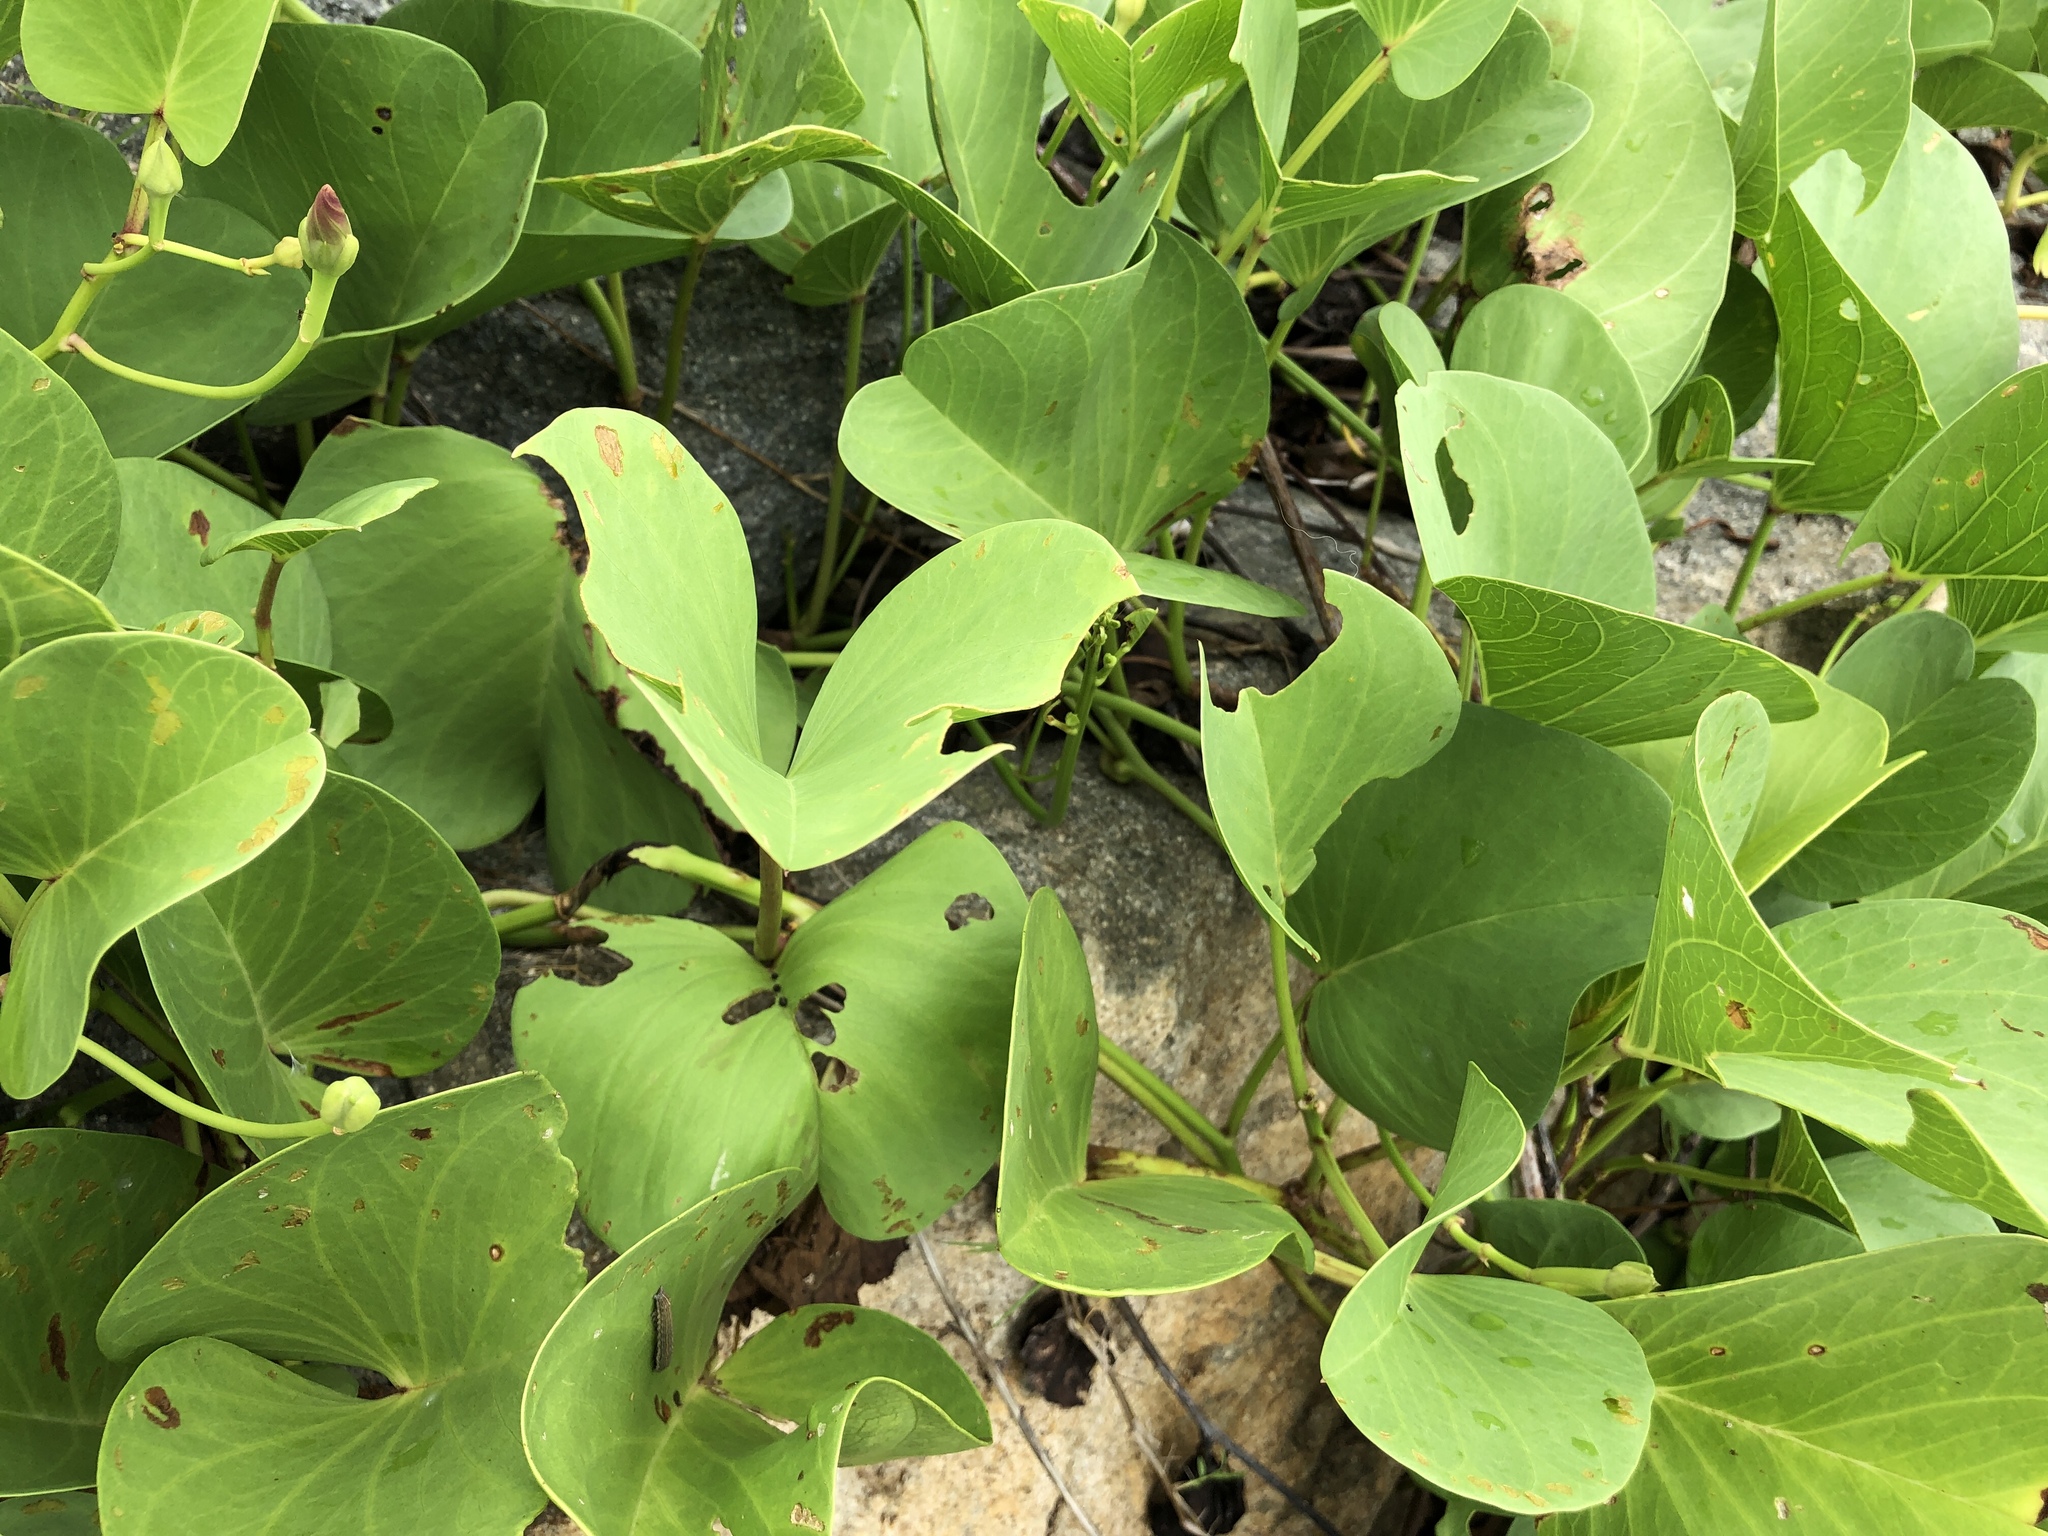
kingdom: Plantae
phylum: Tracheophyta
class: Magnoliopsida
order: Solanales
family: Convolvulaceae
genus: Ipomoea
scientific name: Ipomoea pes-caprae
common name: Beach morning glory
